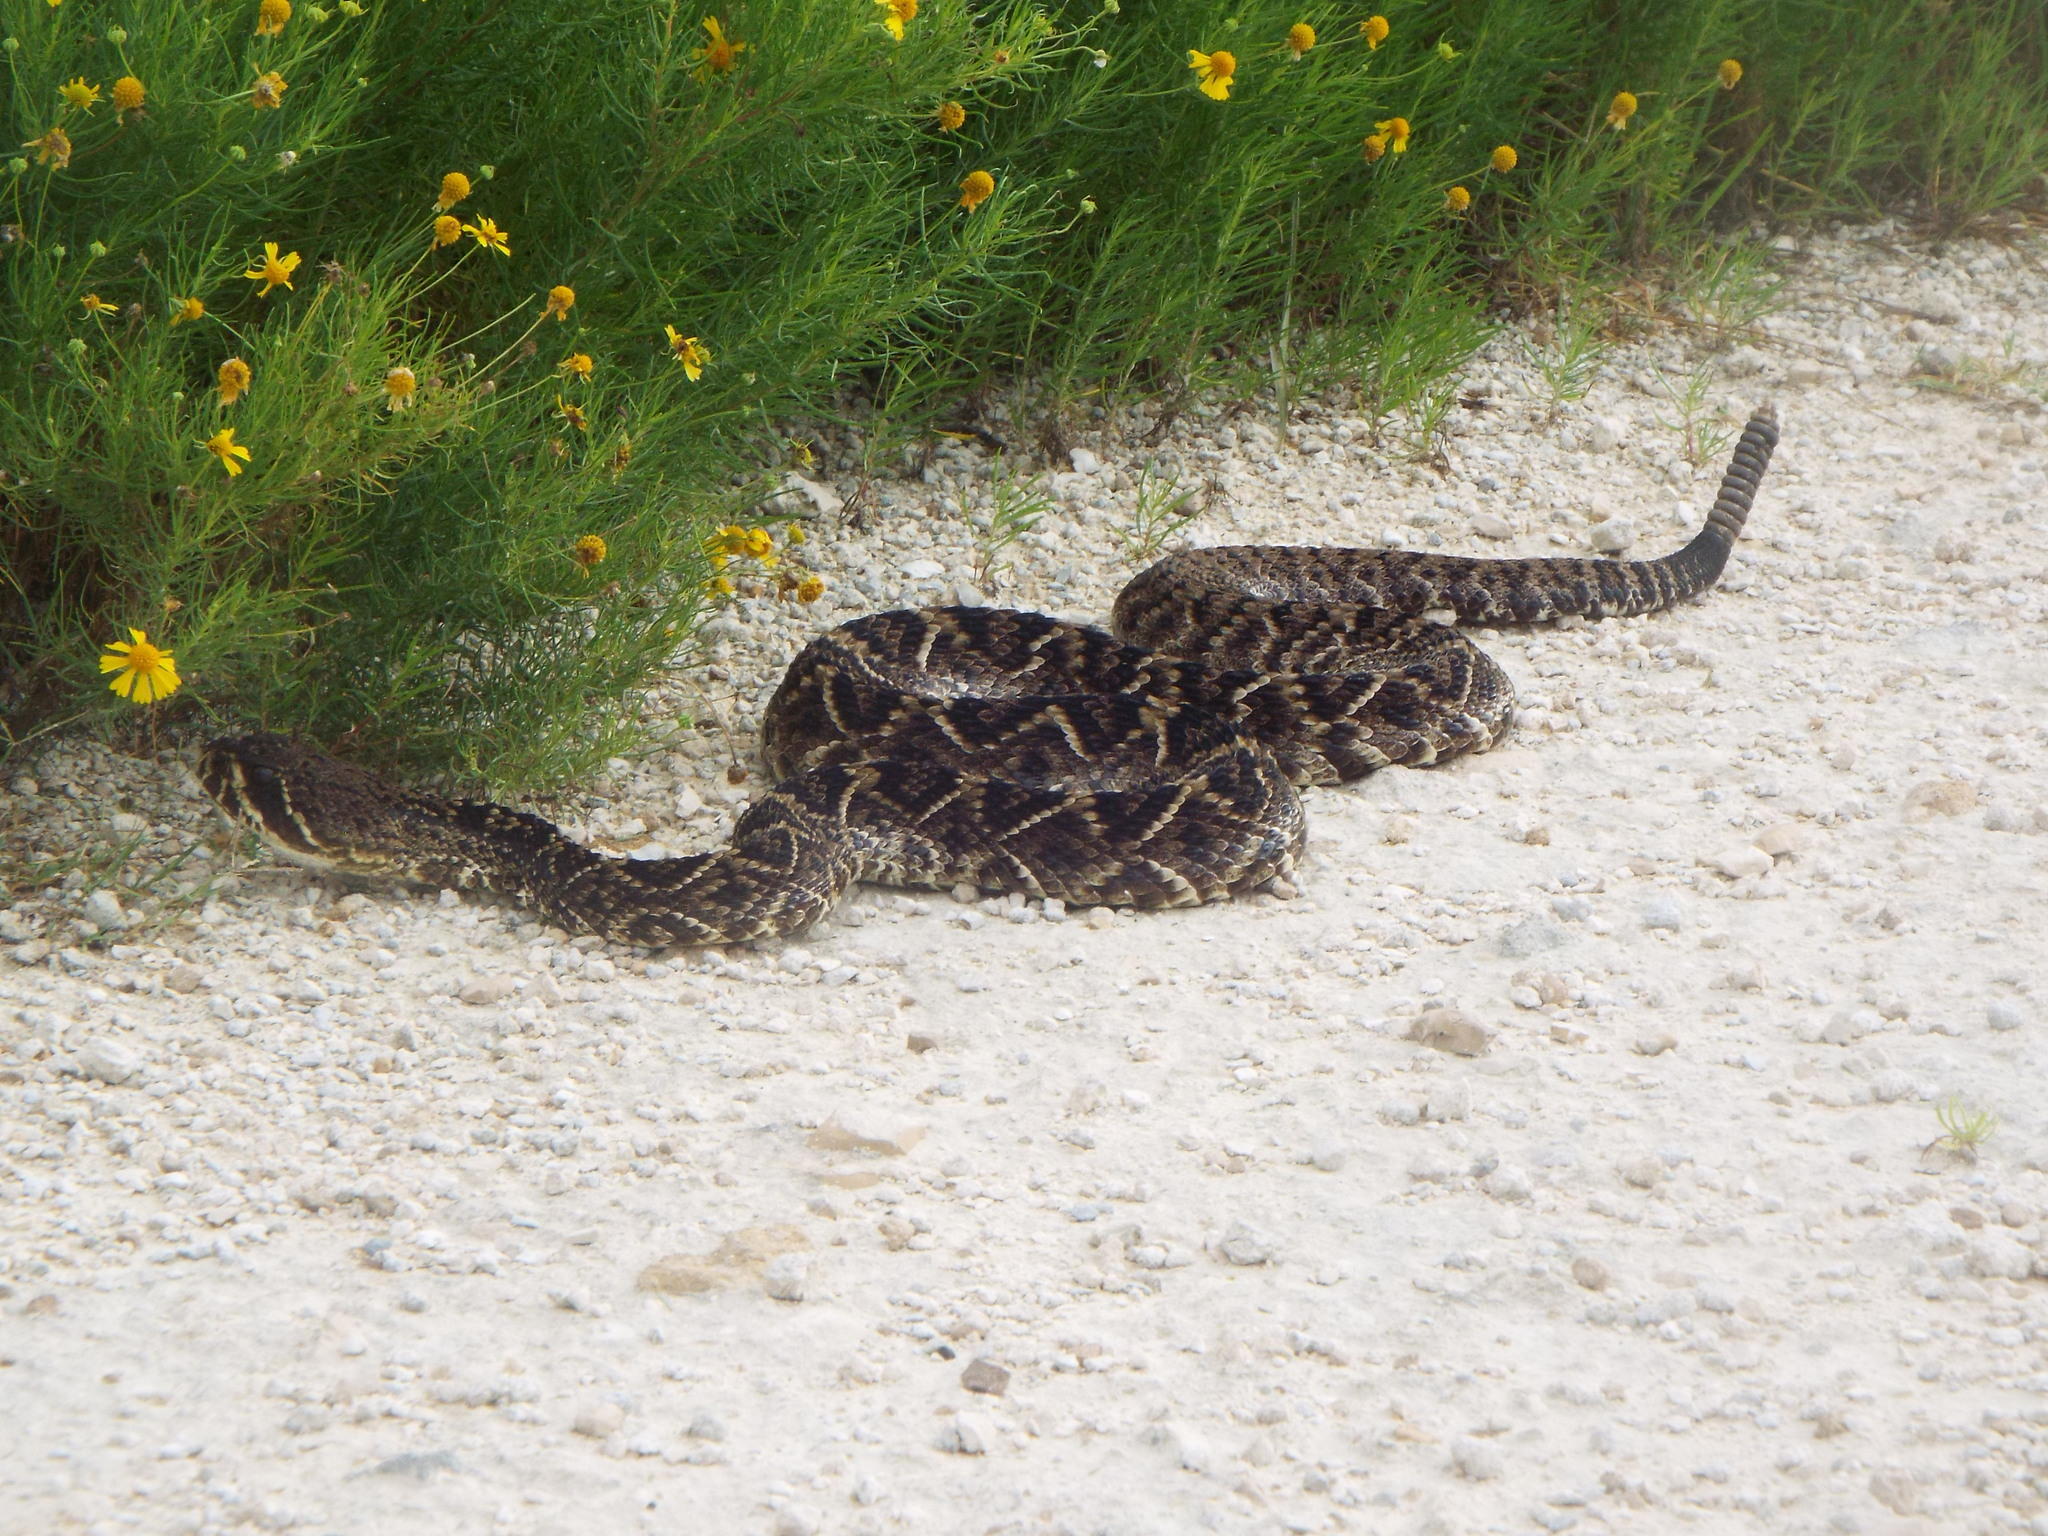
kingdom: Animalia
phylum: Chordata
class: Squamata
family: Viperidae
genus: Crotalus
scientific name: Crotalus adamanteus
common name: Eastern diamondback rattlesnake
